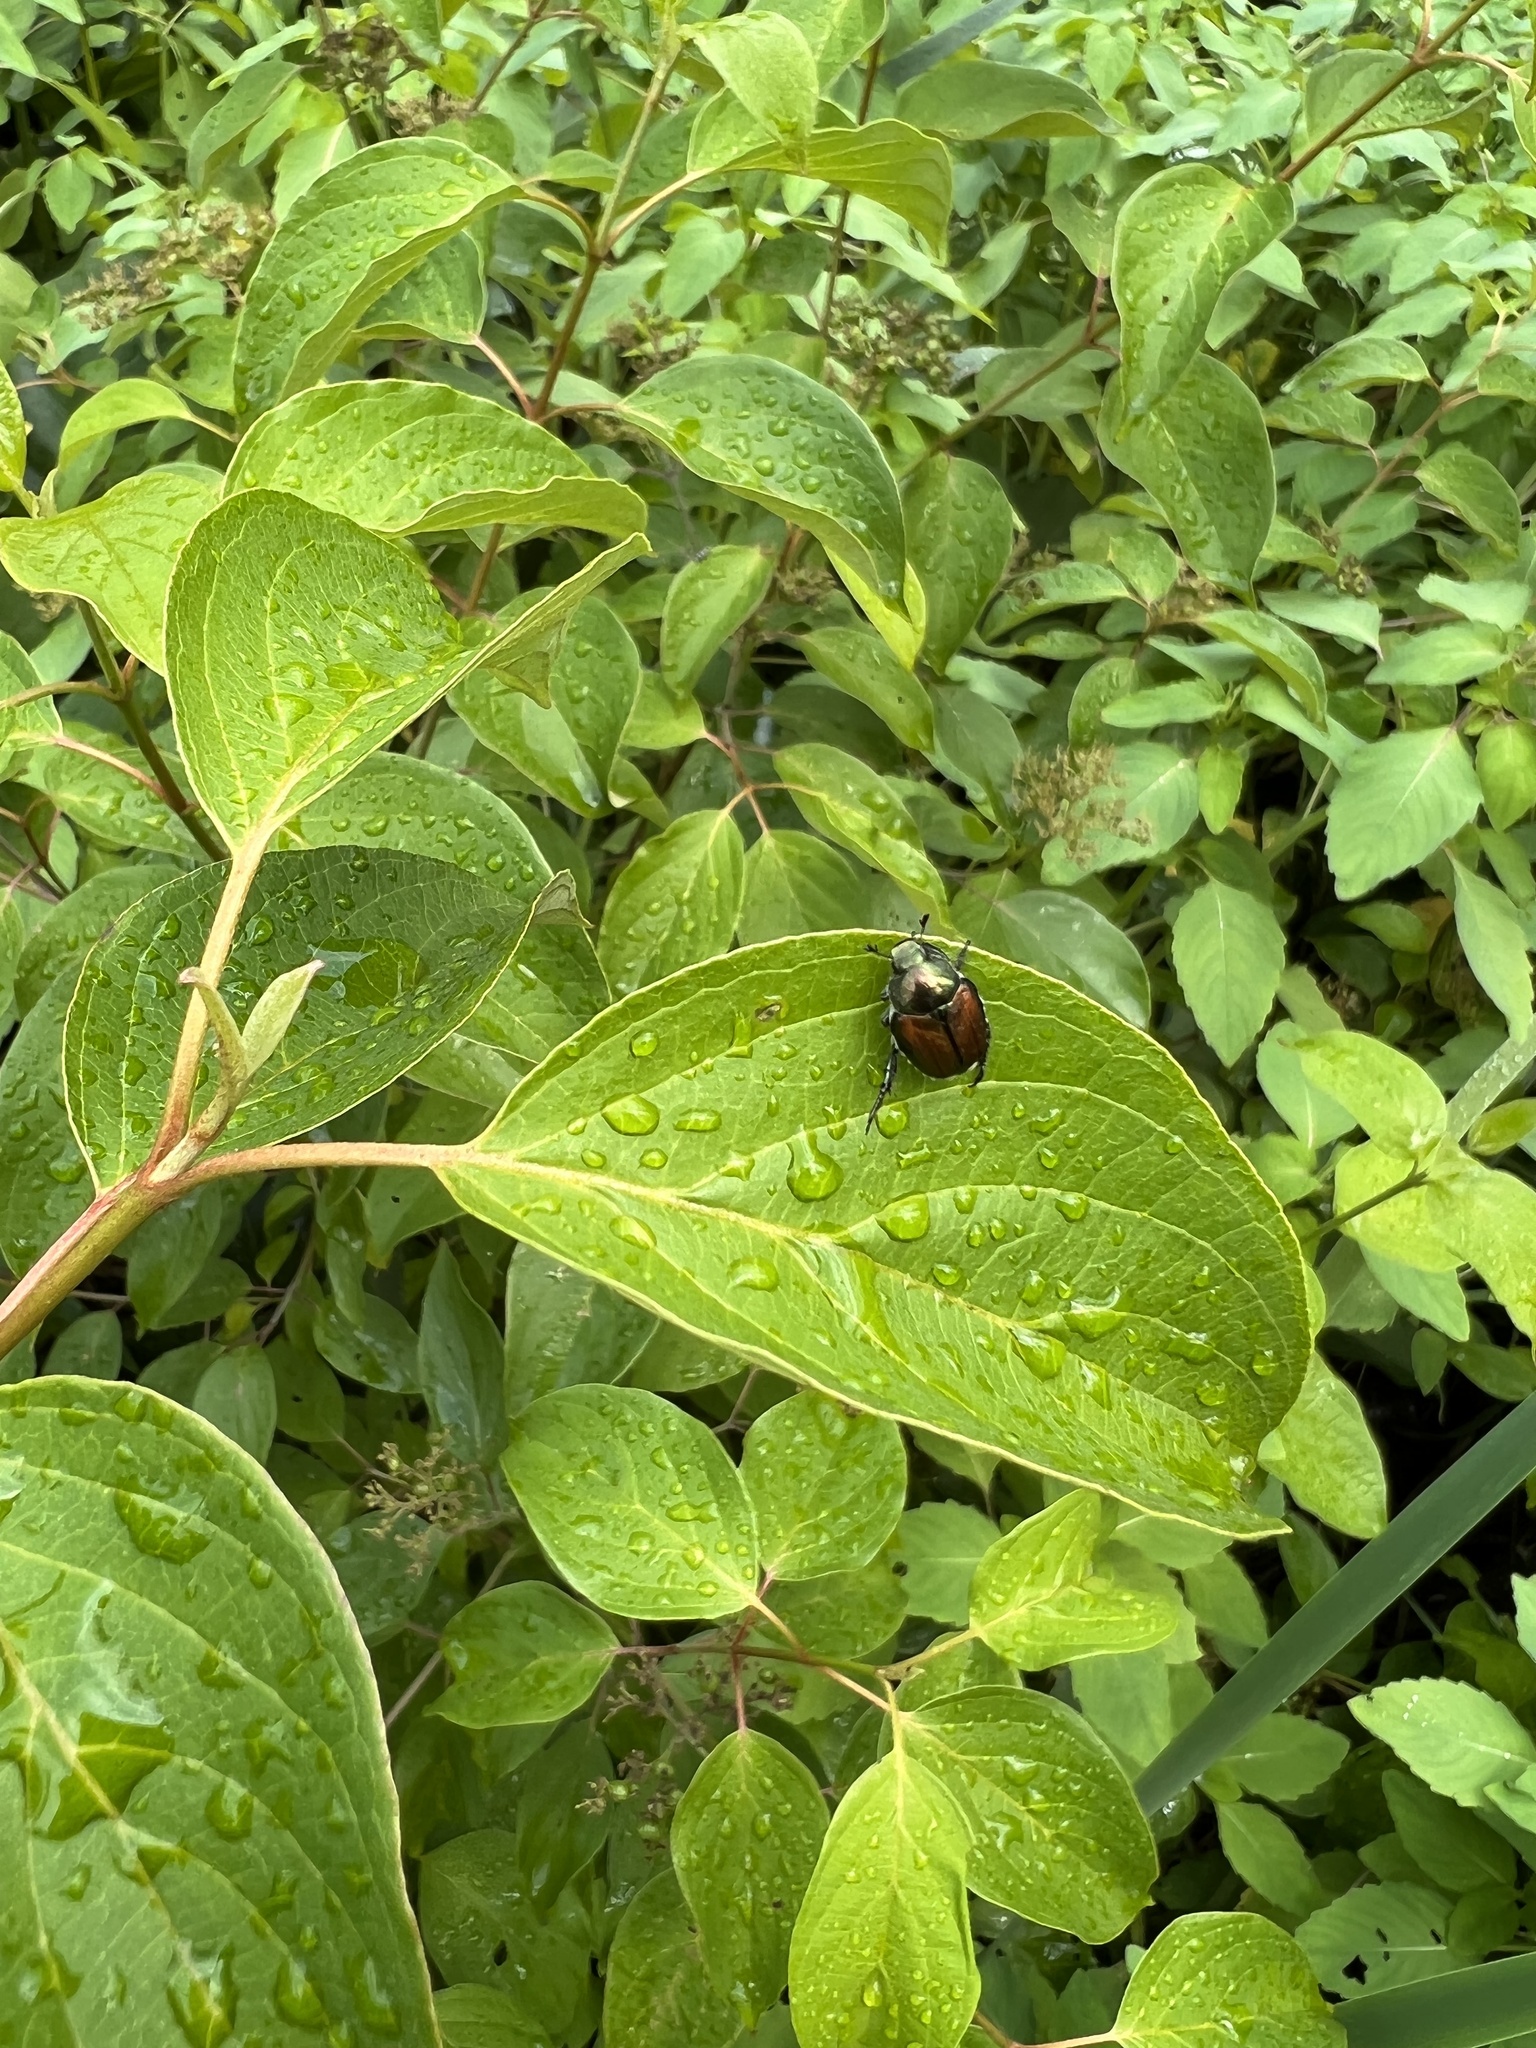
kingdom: Animalia
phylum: Arthropoda
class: Insecta
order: Coleoptera
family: Scarabaeidae
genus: Popillia
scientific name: Popillia japonica
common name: Japanese beetle
